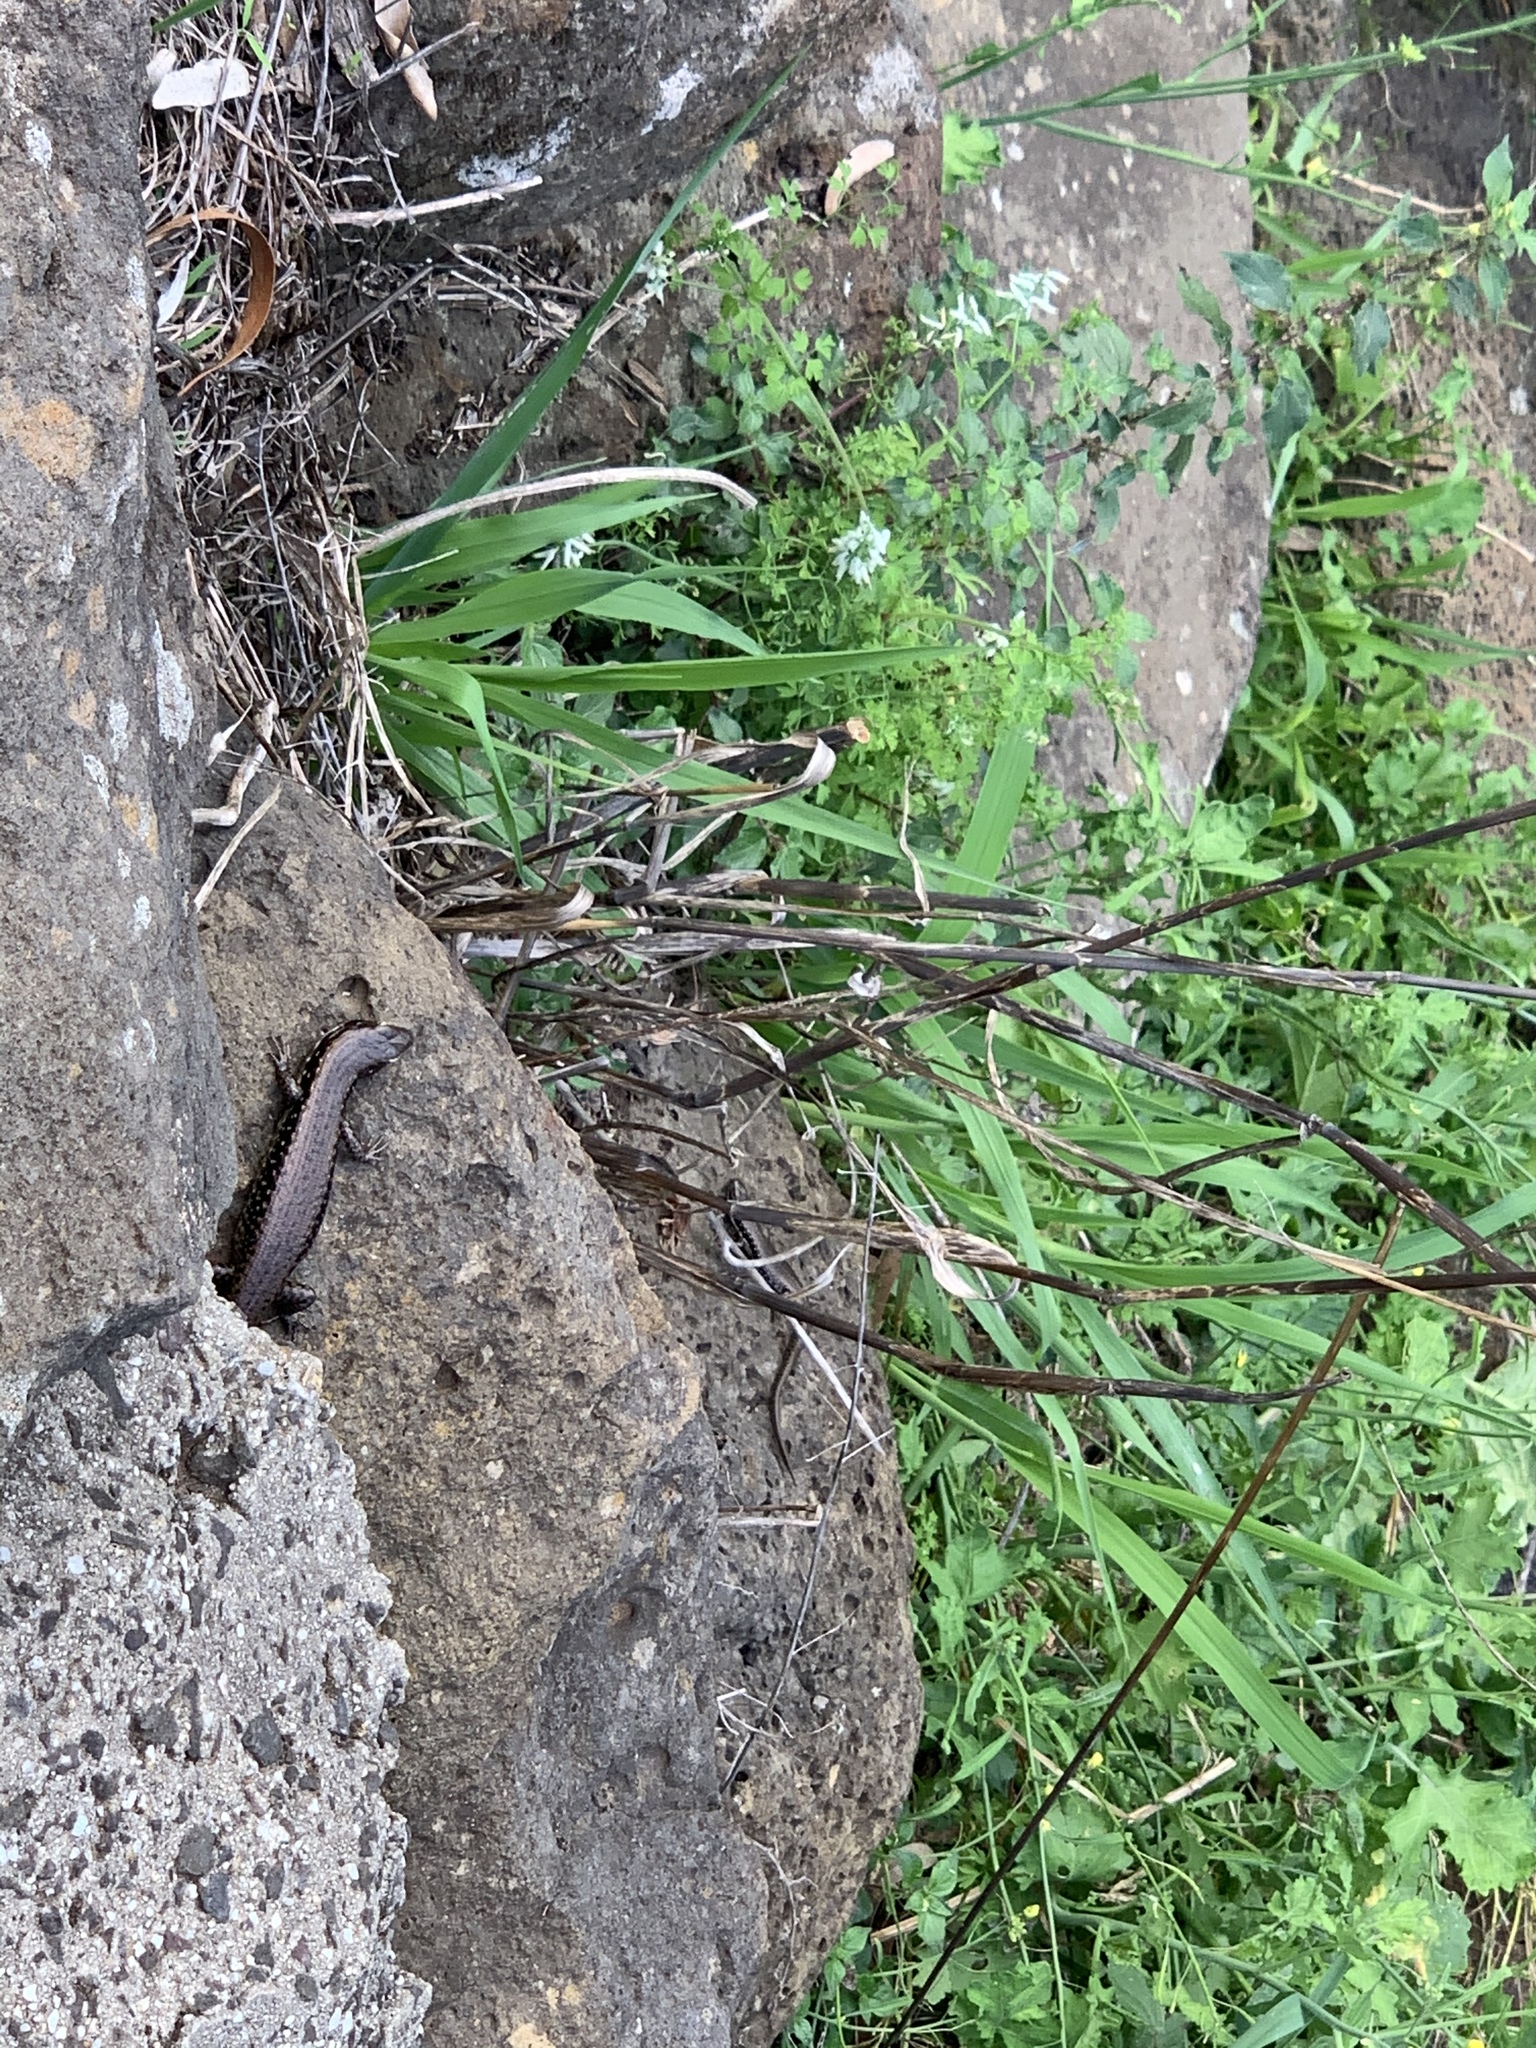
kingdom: Animalia
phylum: Chordata
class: Squamata
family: Scincidae
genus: Eulamprus
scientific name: Eulamprus tympanum
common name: Cool-temperate water-skink
